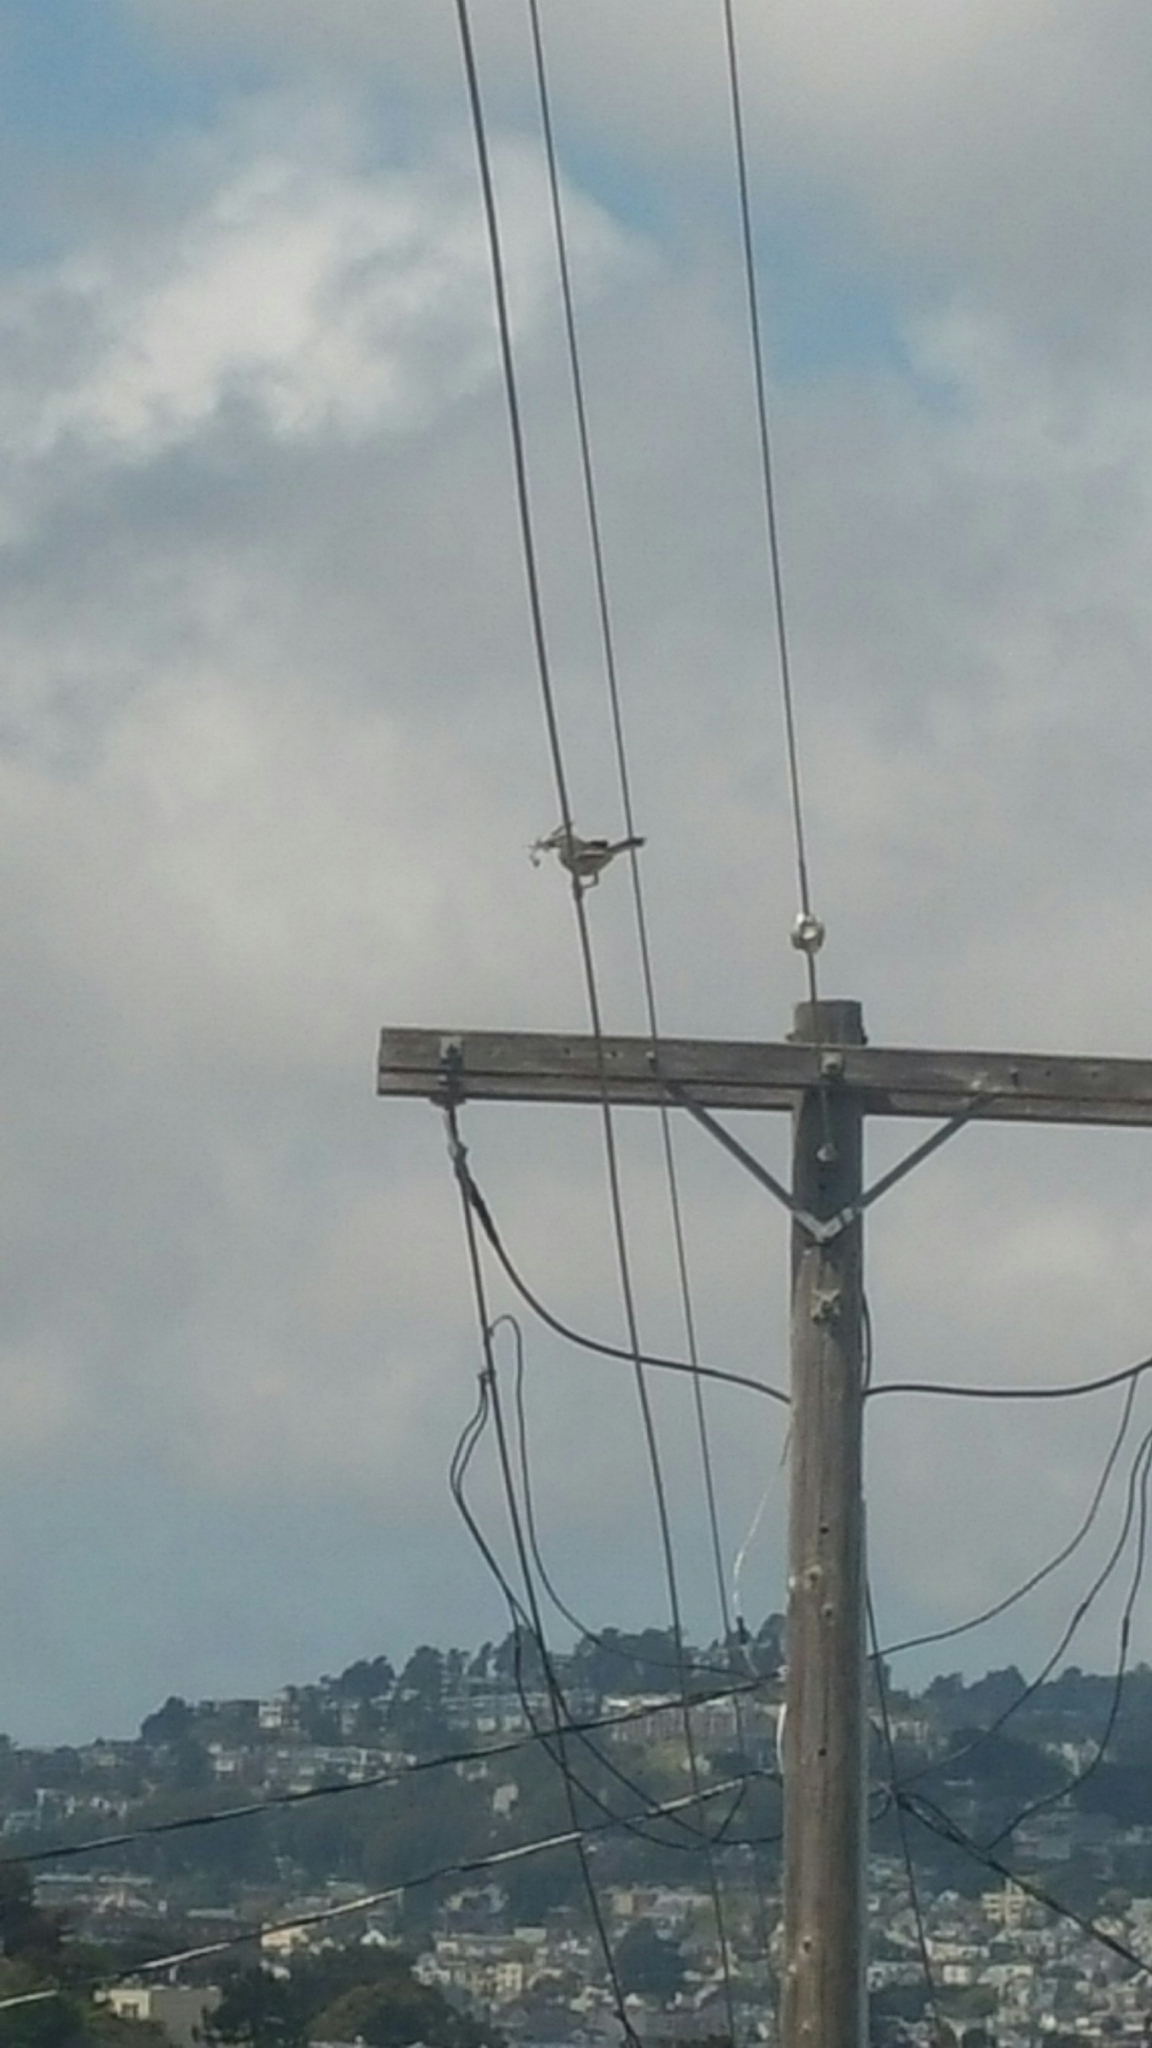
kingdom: Animalia
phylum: Chordata
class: Aves
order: Passeriformes
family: Mimidae
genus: Mimus
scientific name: Mimus polyglottos
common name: Northern mockingbird
